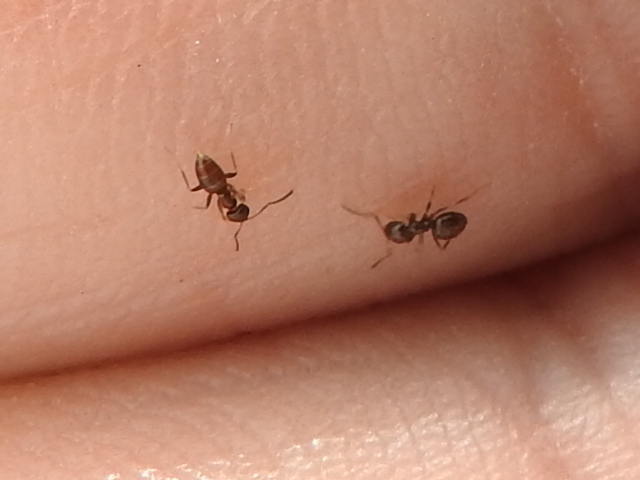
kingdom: Animalia
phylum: Arthropoda
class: Insecta
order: Hymenoptera
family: Formicidae
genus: Brachymyrmex
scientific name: Brachymyrmex patagonicus
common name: Dark rover ant
